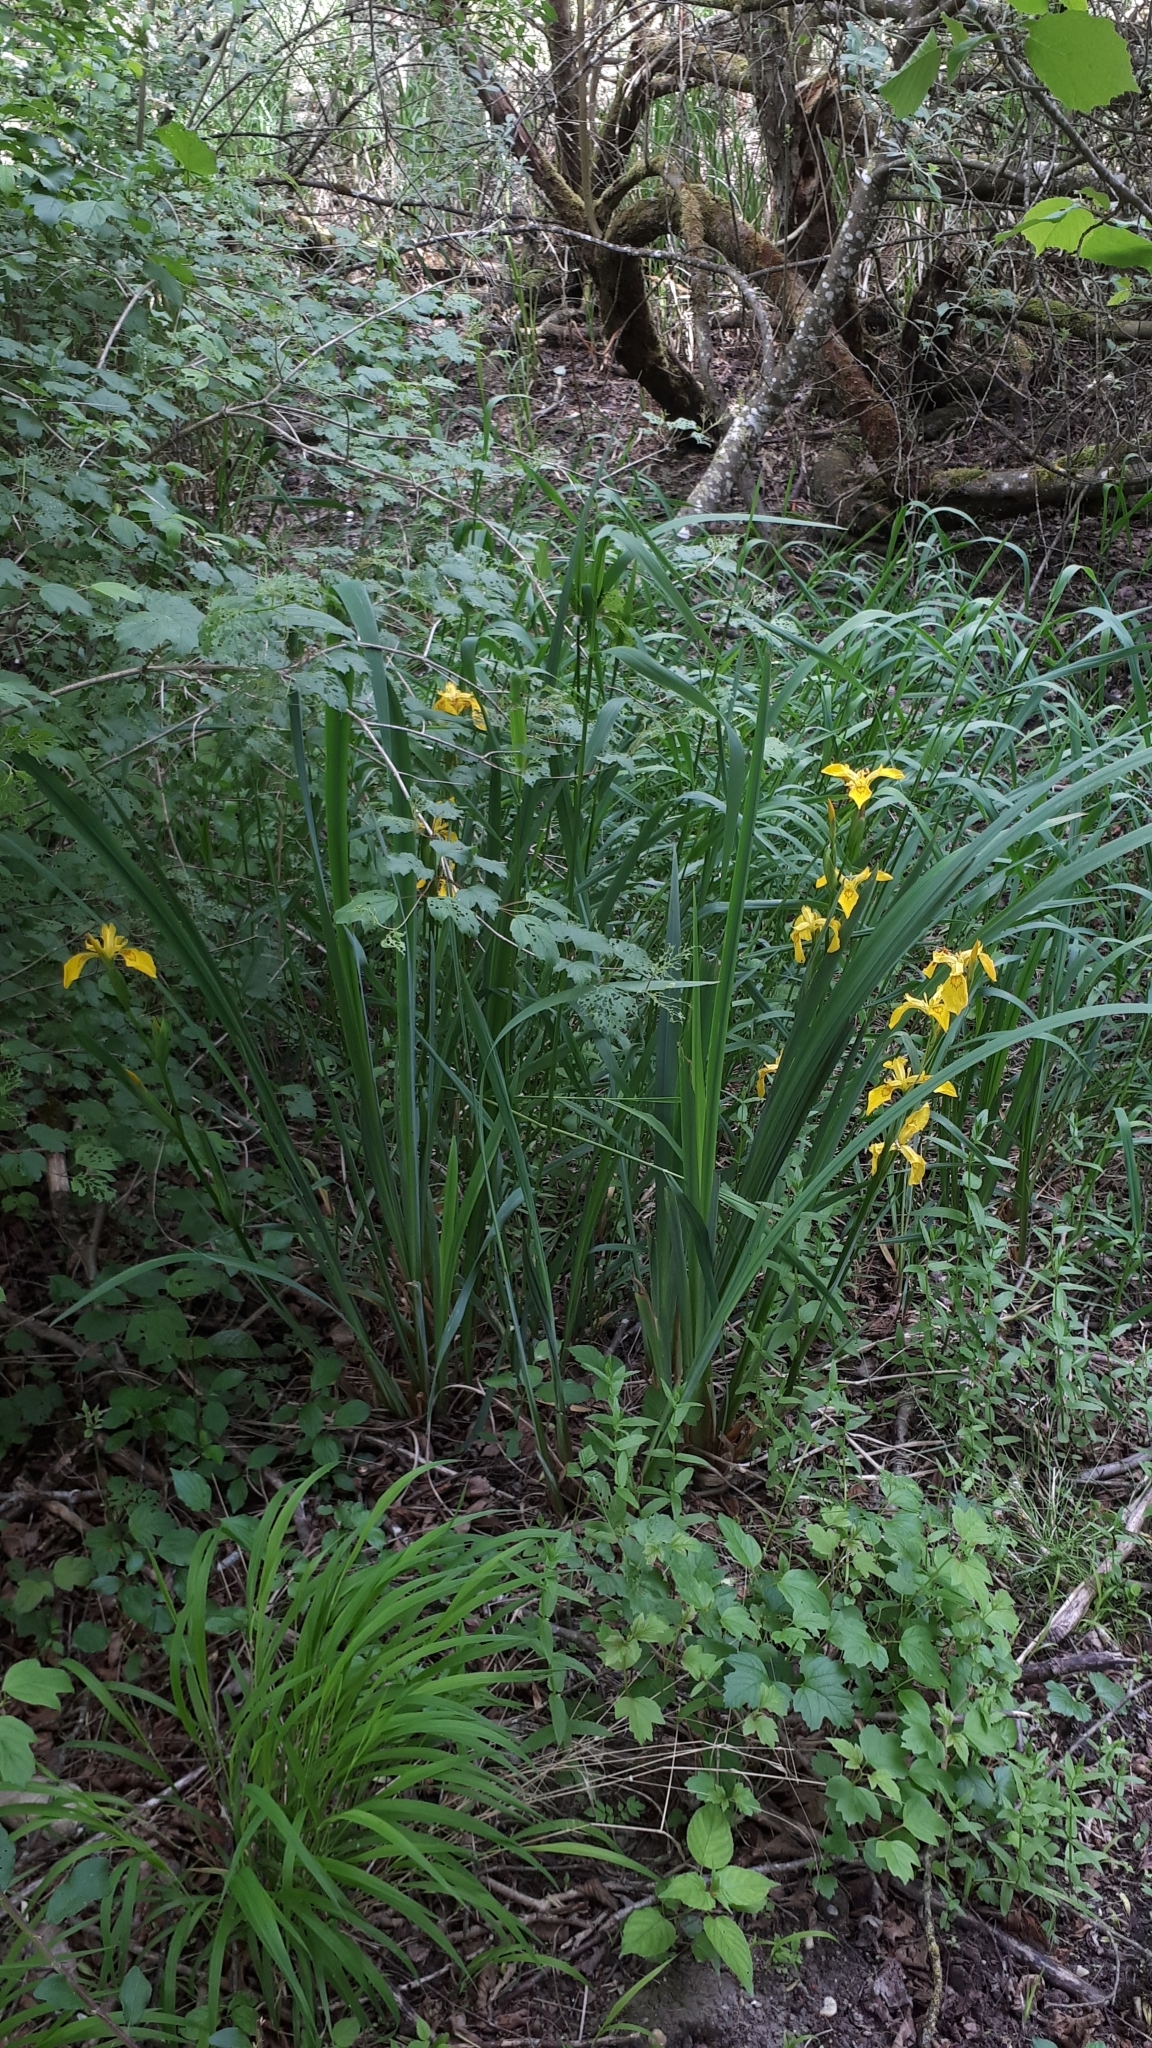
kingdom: Plantae
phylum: Tracheophyta
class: Liliopsida
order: Asparagales
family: Iridaceae
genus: Iris
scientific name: Iris pseudacorus
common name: Yellow flag
